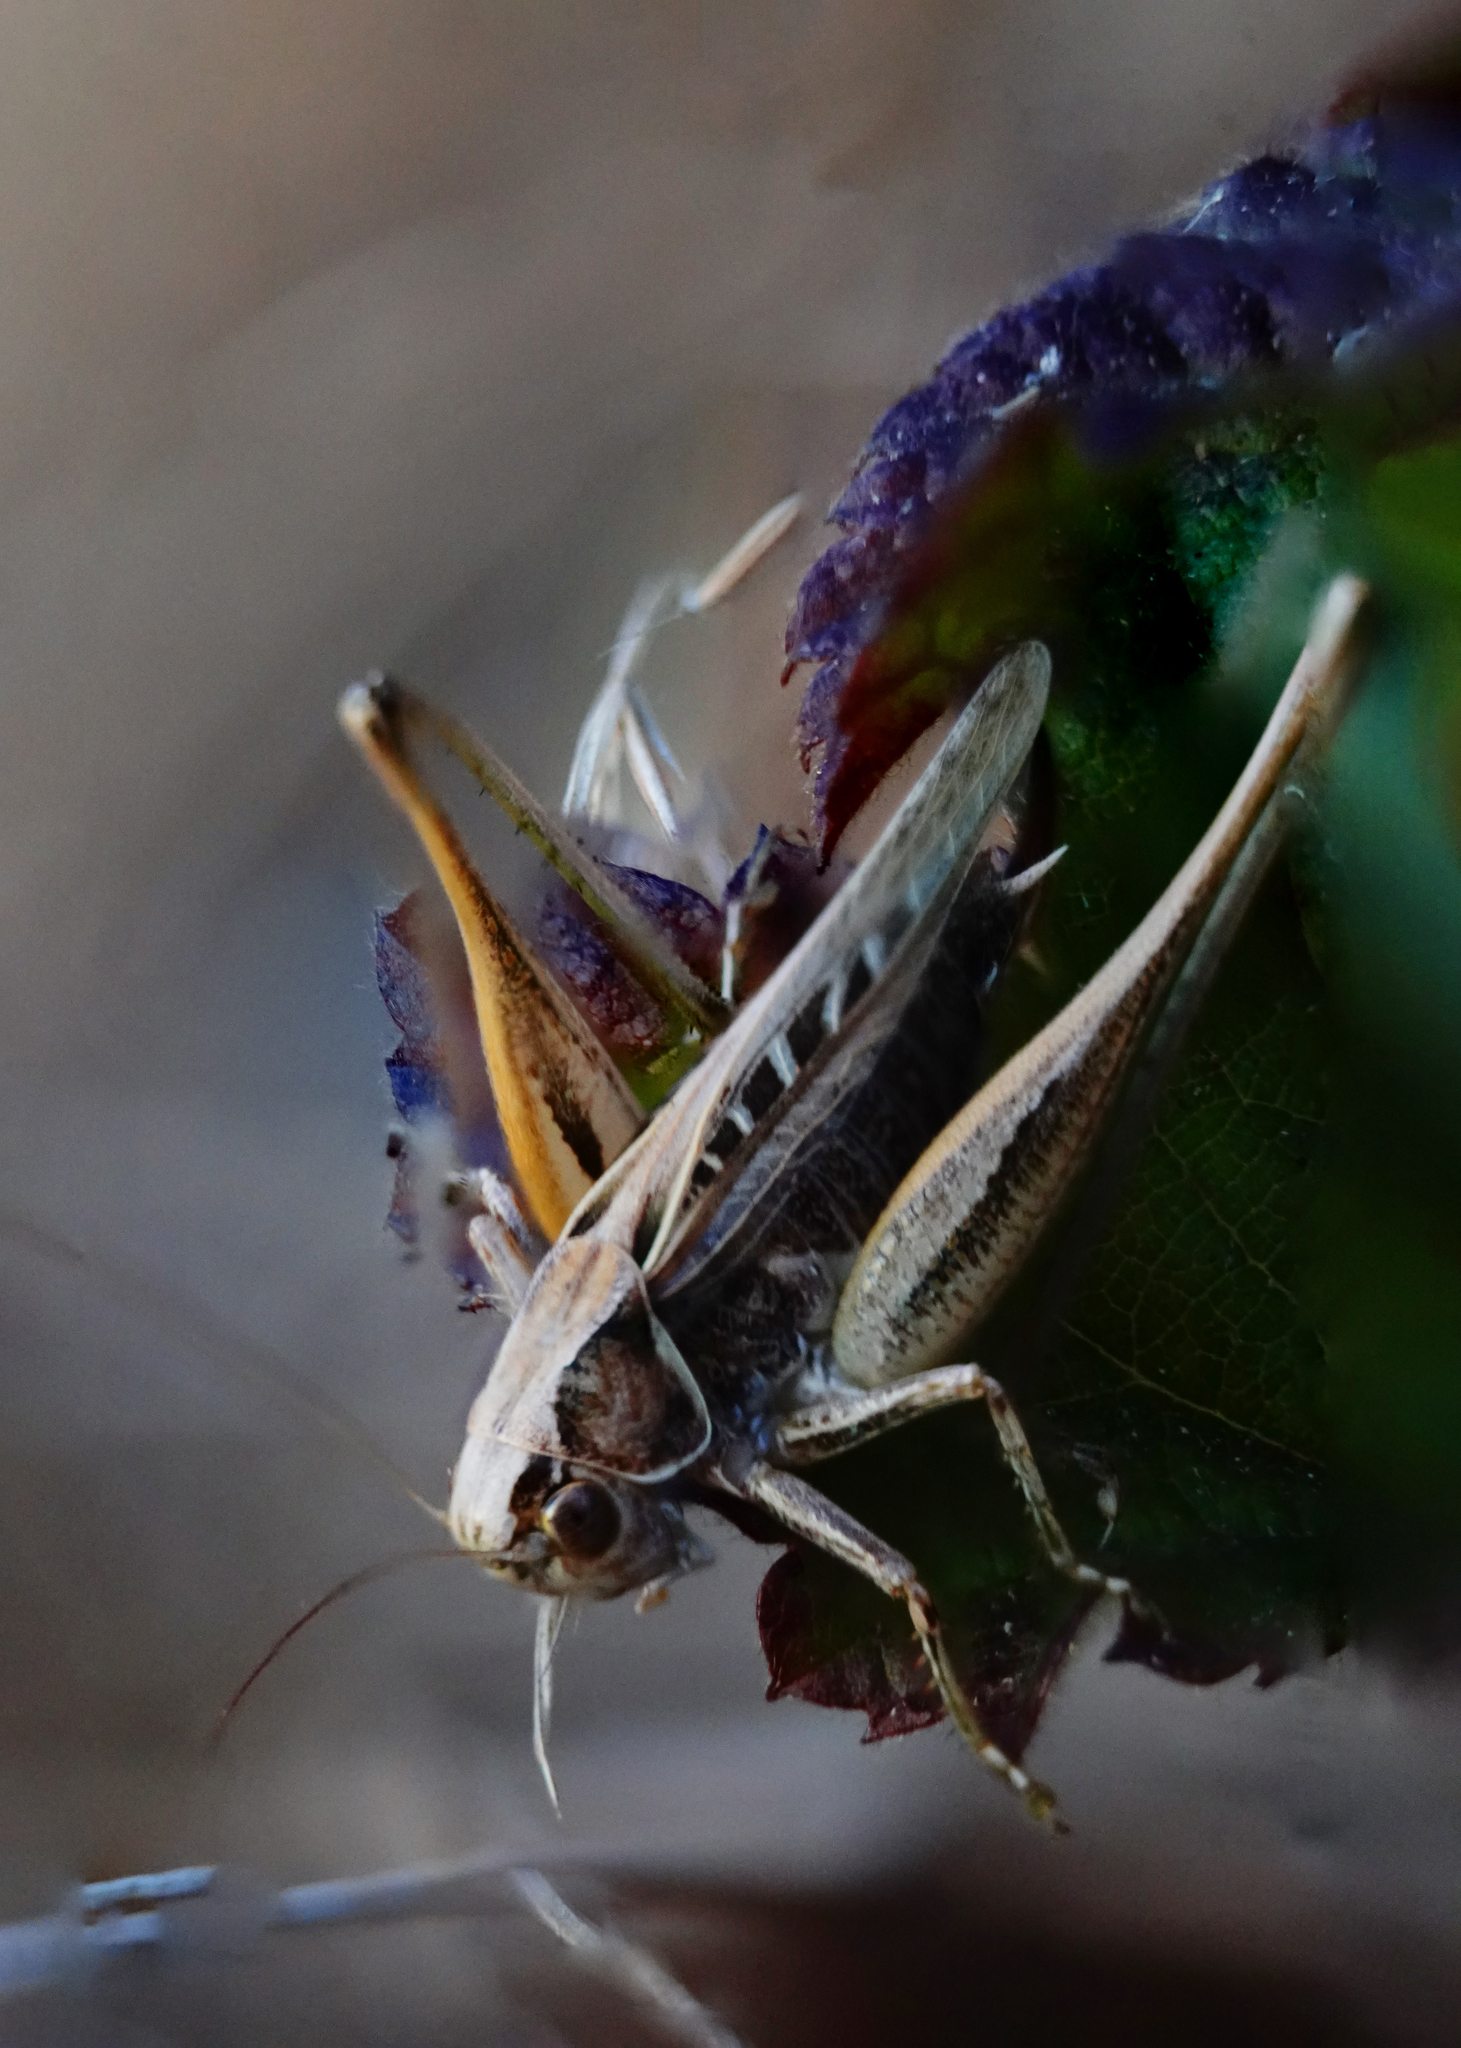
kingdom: Animalia
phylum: Arthropoda
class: Insecta
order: Orthoptera
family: Tettigoniidae
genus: Tessellana
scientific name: Tessellana tessellata
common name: Grasshopper
